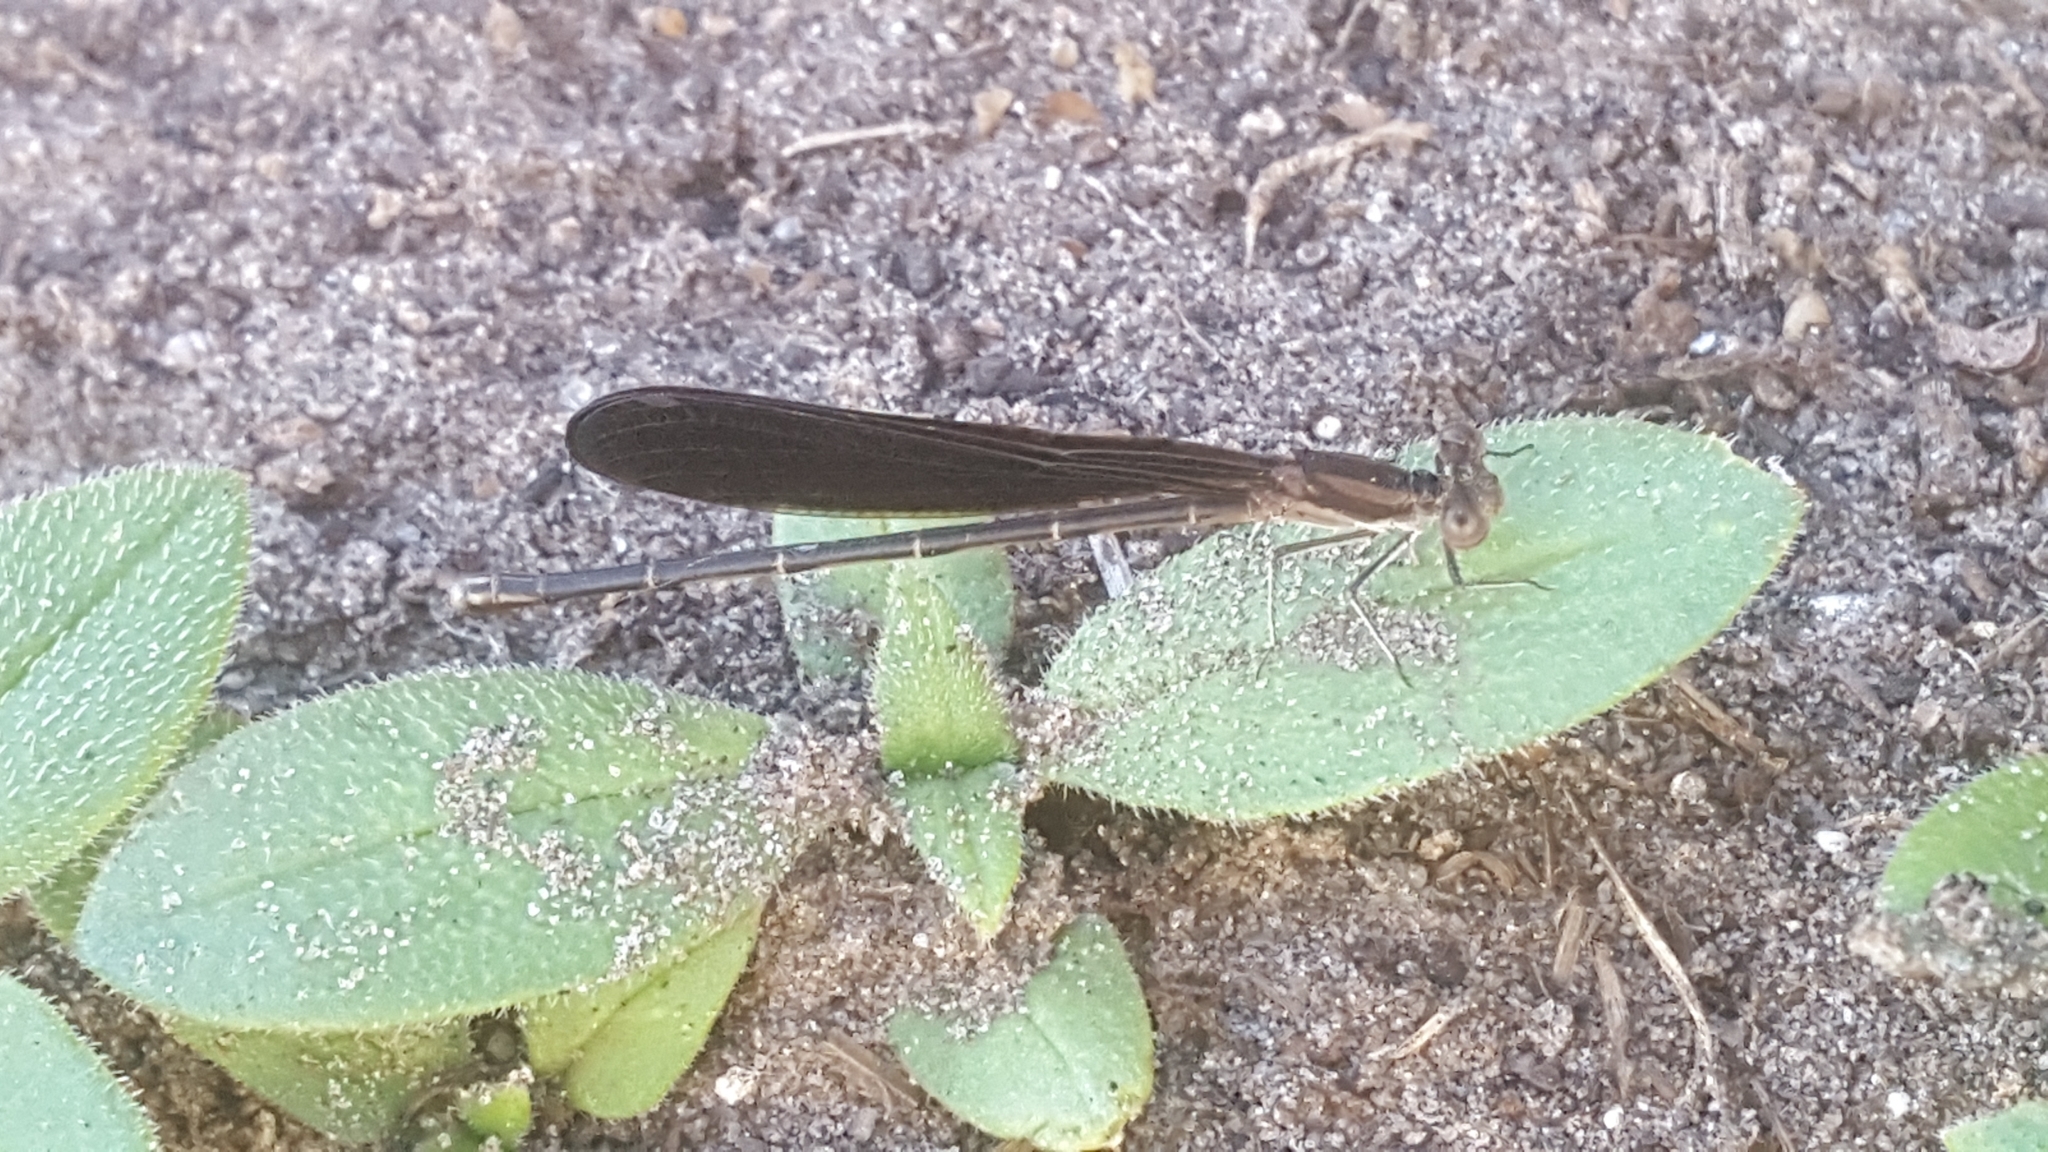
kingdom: Animalia
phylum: Arthropoda
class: Insecta
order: Odonata
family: Coenagrionidae
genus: Argia
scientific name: Argia fumipennis
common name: Variable dancer
